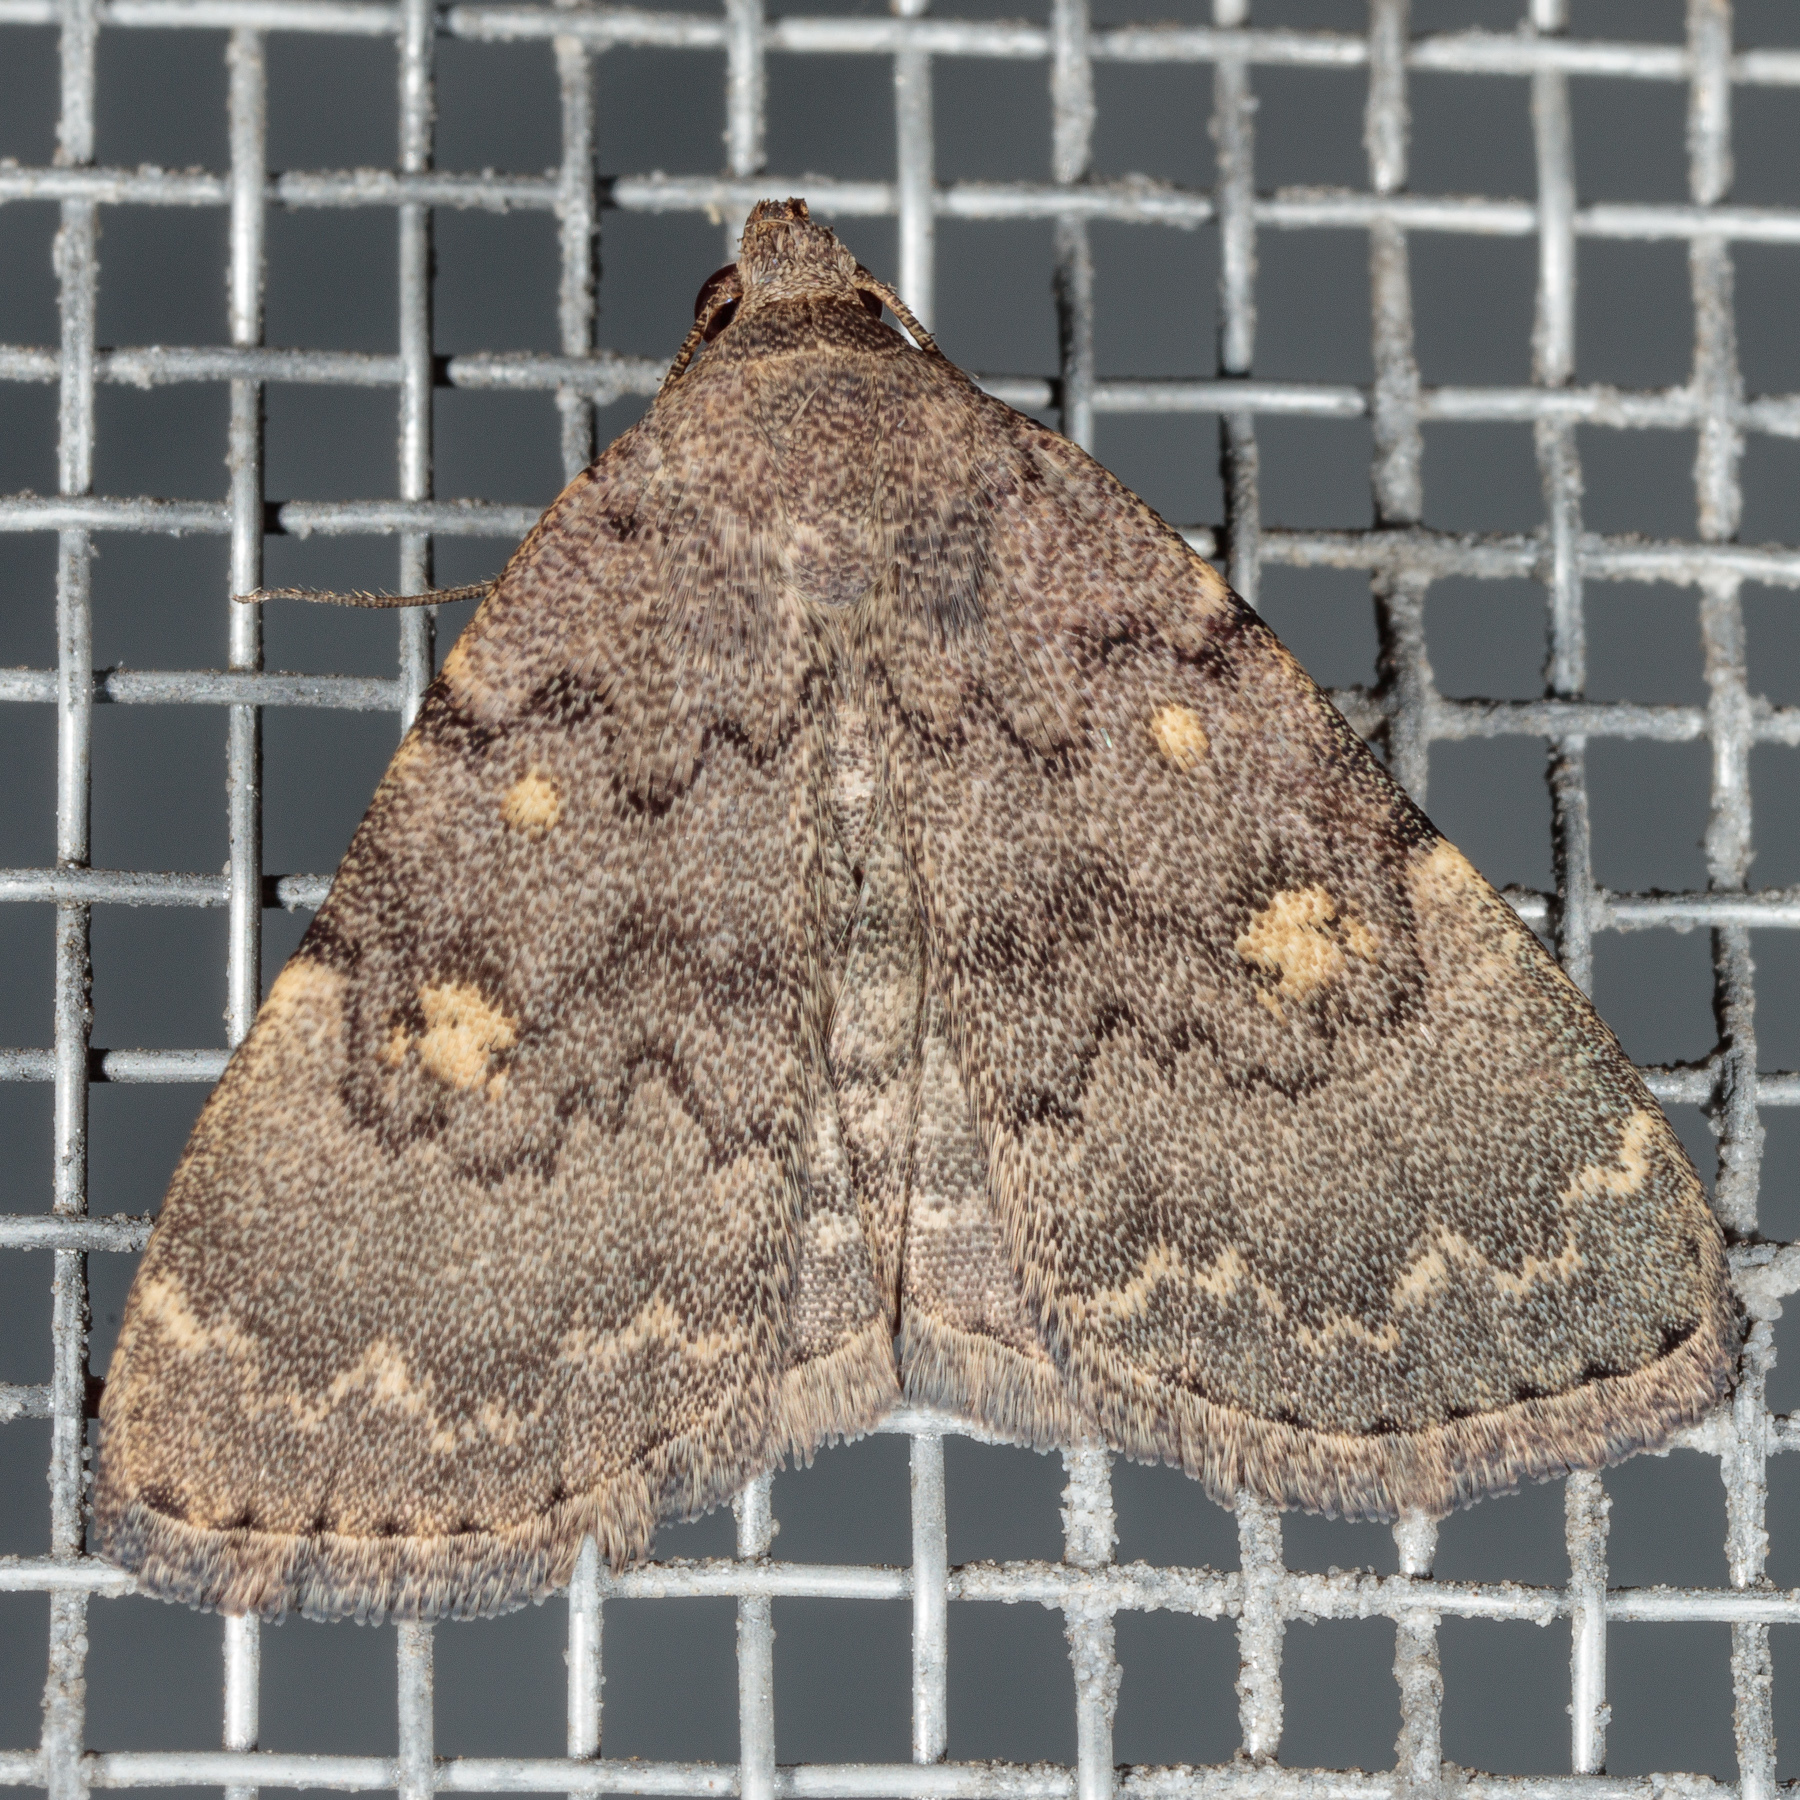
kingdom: Animalia
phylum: Arthropoda
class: Insecta
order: Lepidoptera
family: Erebidae
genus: Idia
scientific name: Idia aemula
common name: Common idia moth
